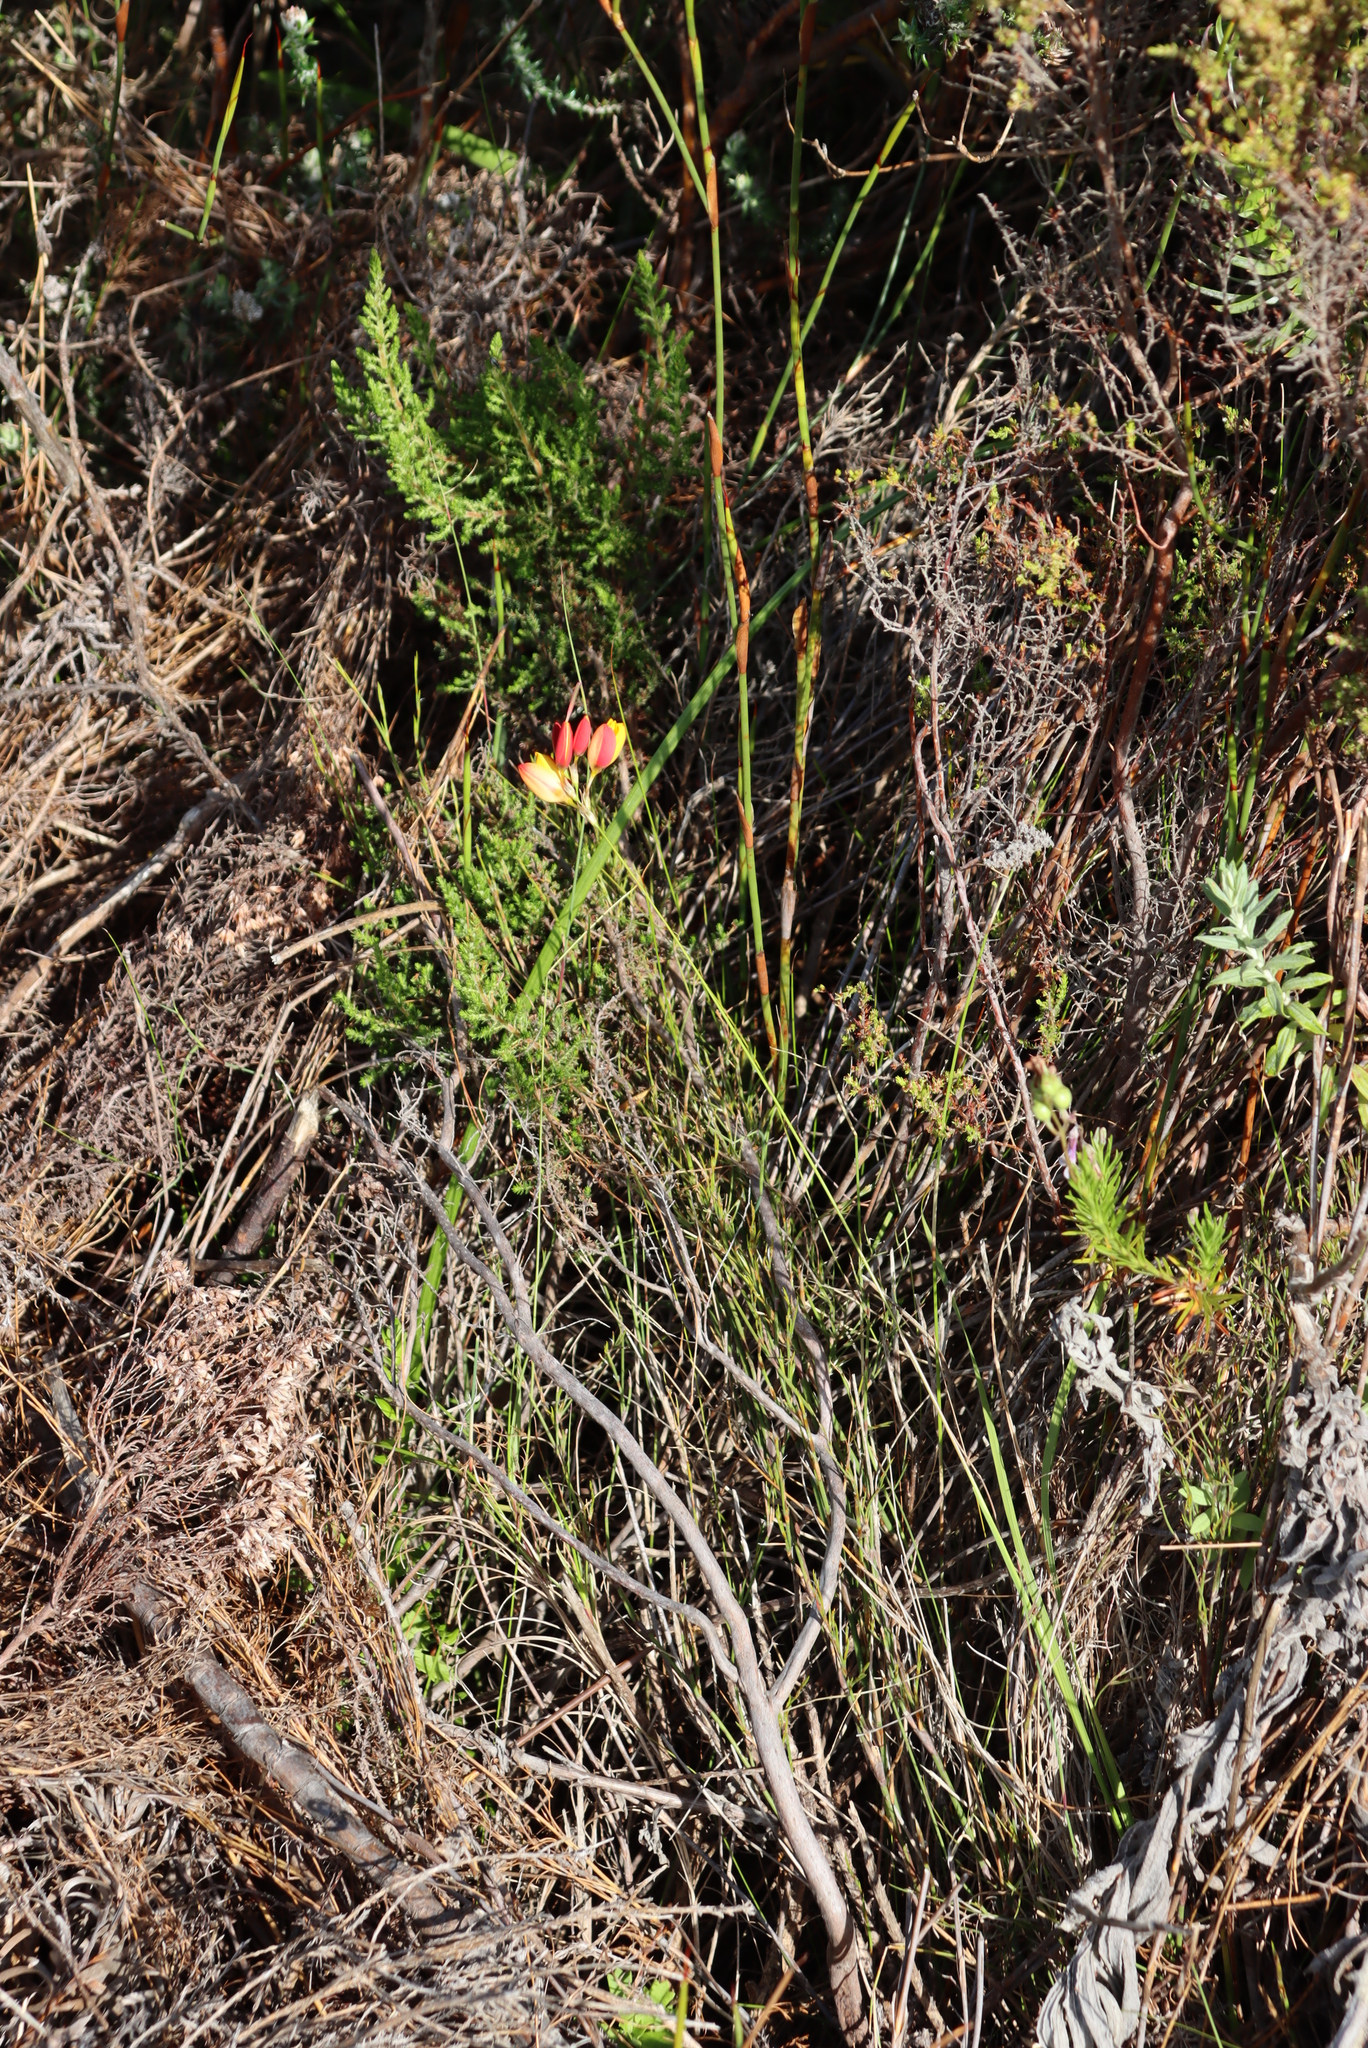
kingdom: Plantae
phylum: Tracheophyta
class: Liliopsida
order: Asparagales
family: Iridaceae
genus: Ixia
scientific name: Ixia dubia
